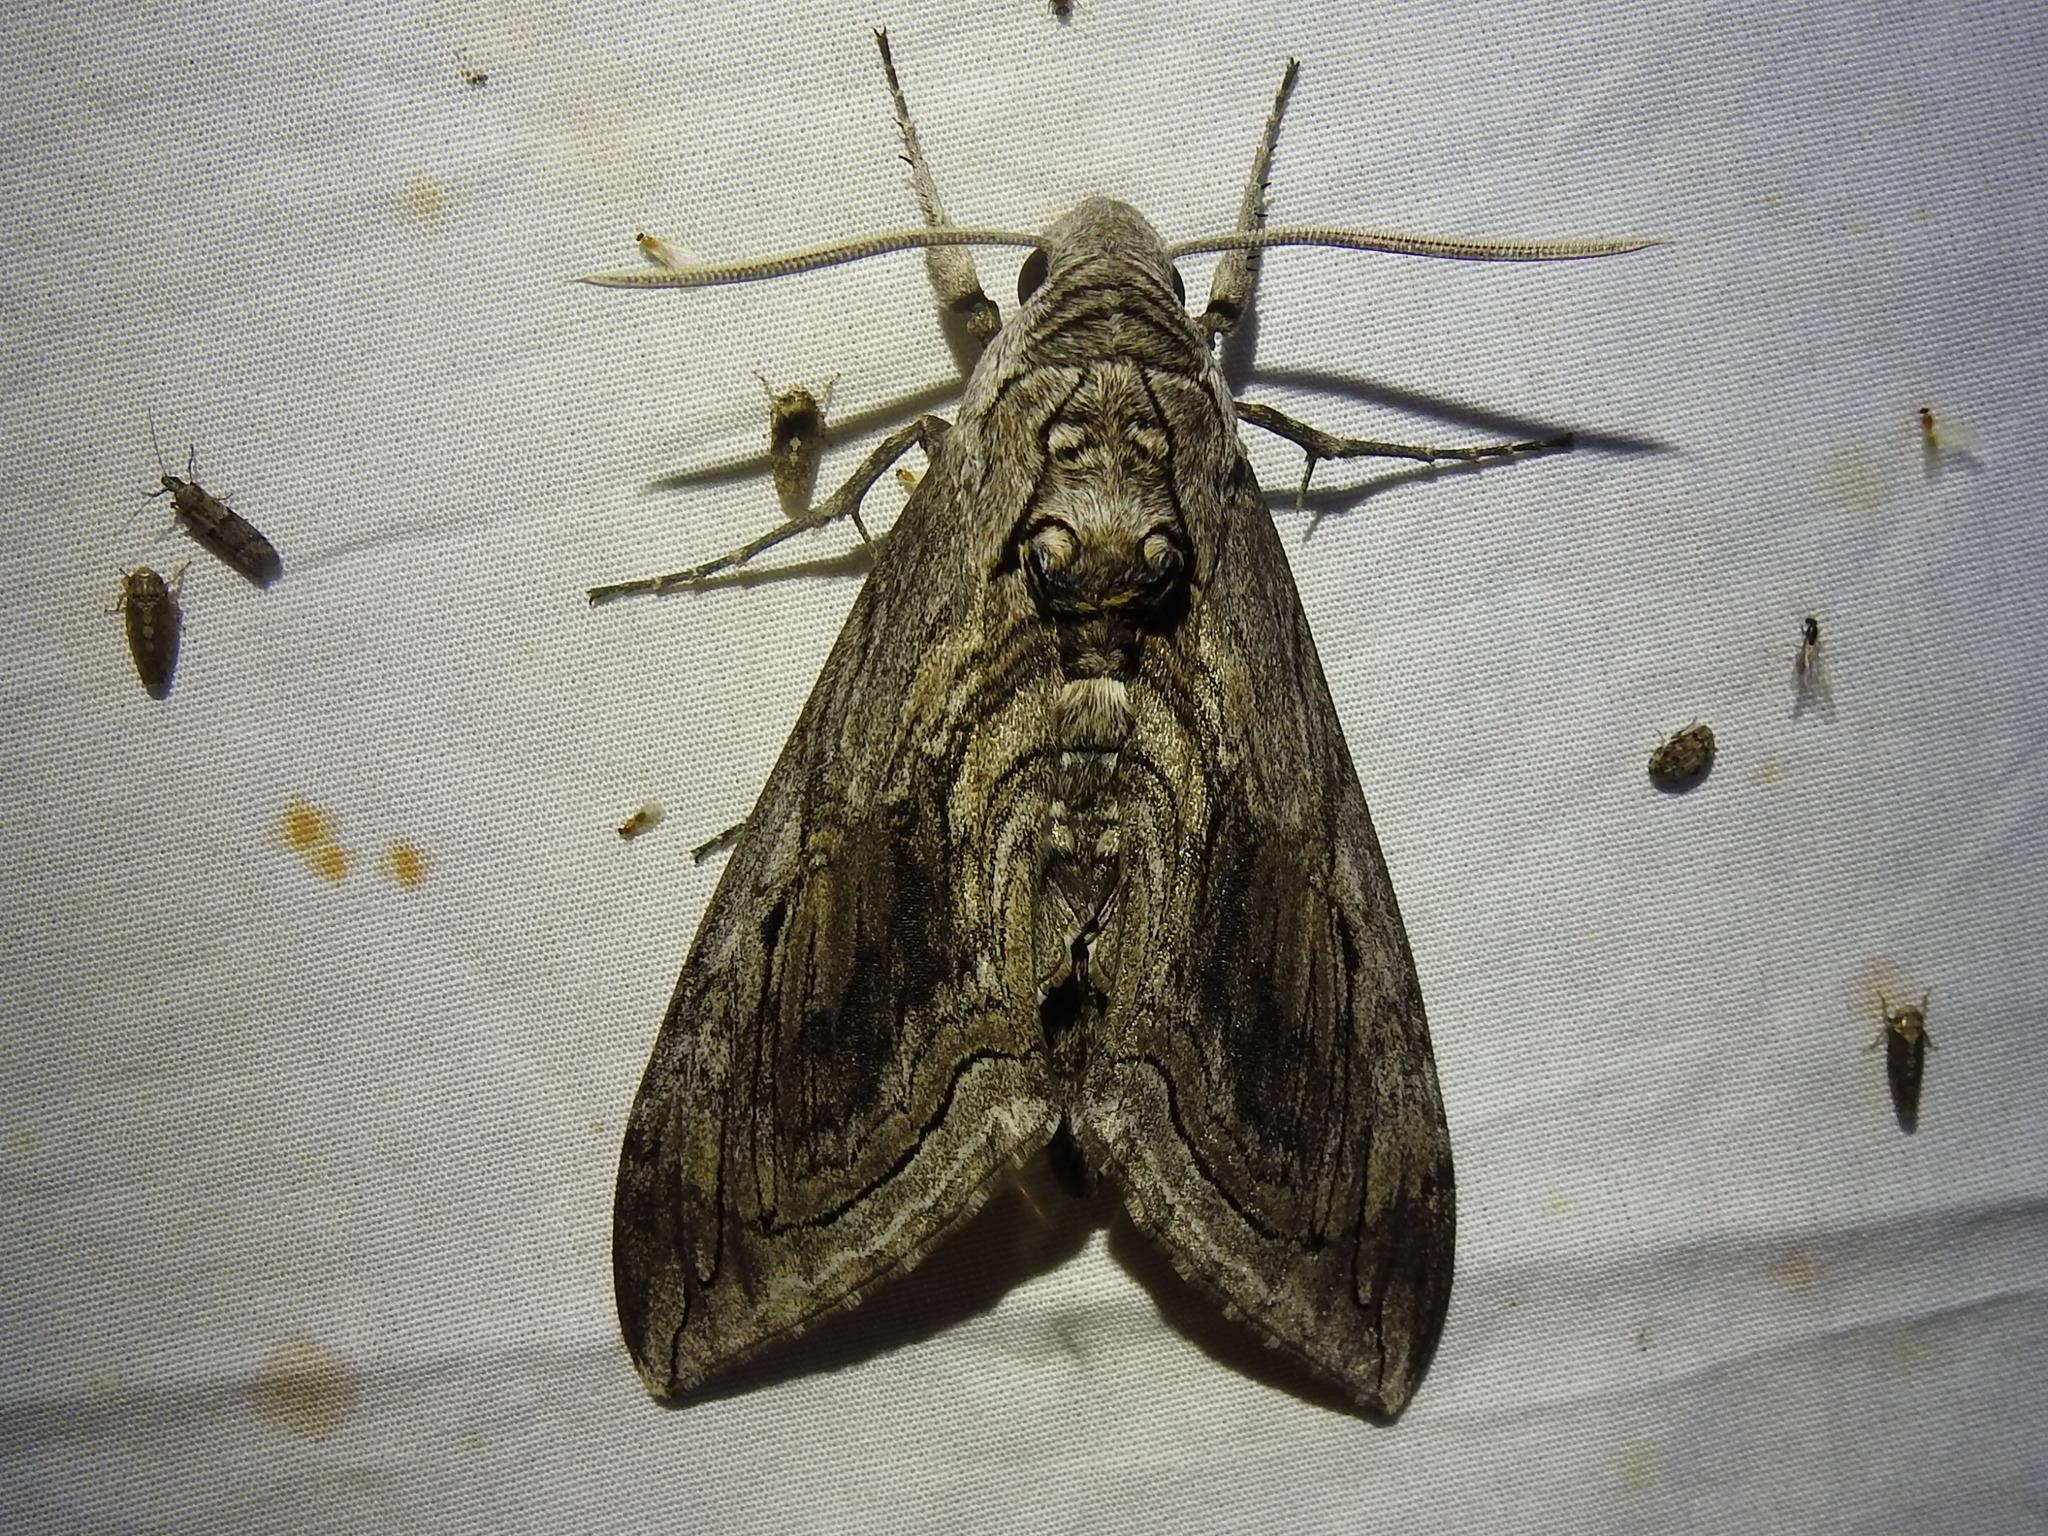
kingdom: Animalia
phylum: Arthropoda
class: Insecta
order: Lepidoptera
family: Sphingidae
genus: Manduca
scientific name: Manduca quinquemaculatus
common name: Five-spotted hawk-moth
